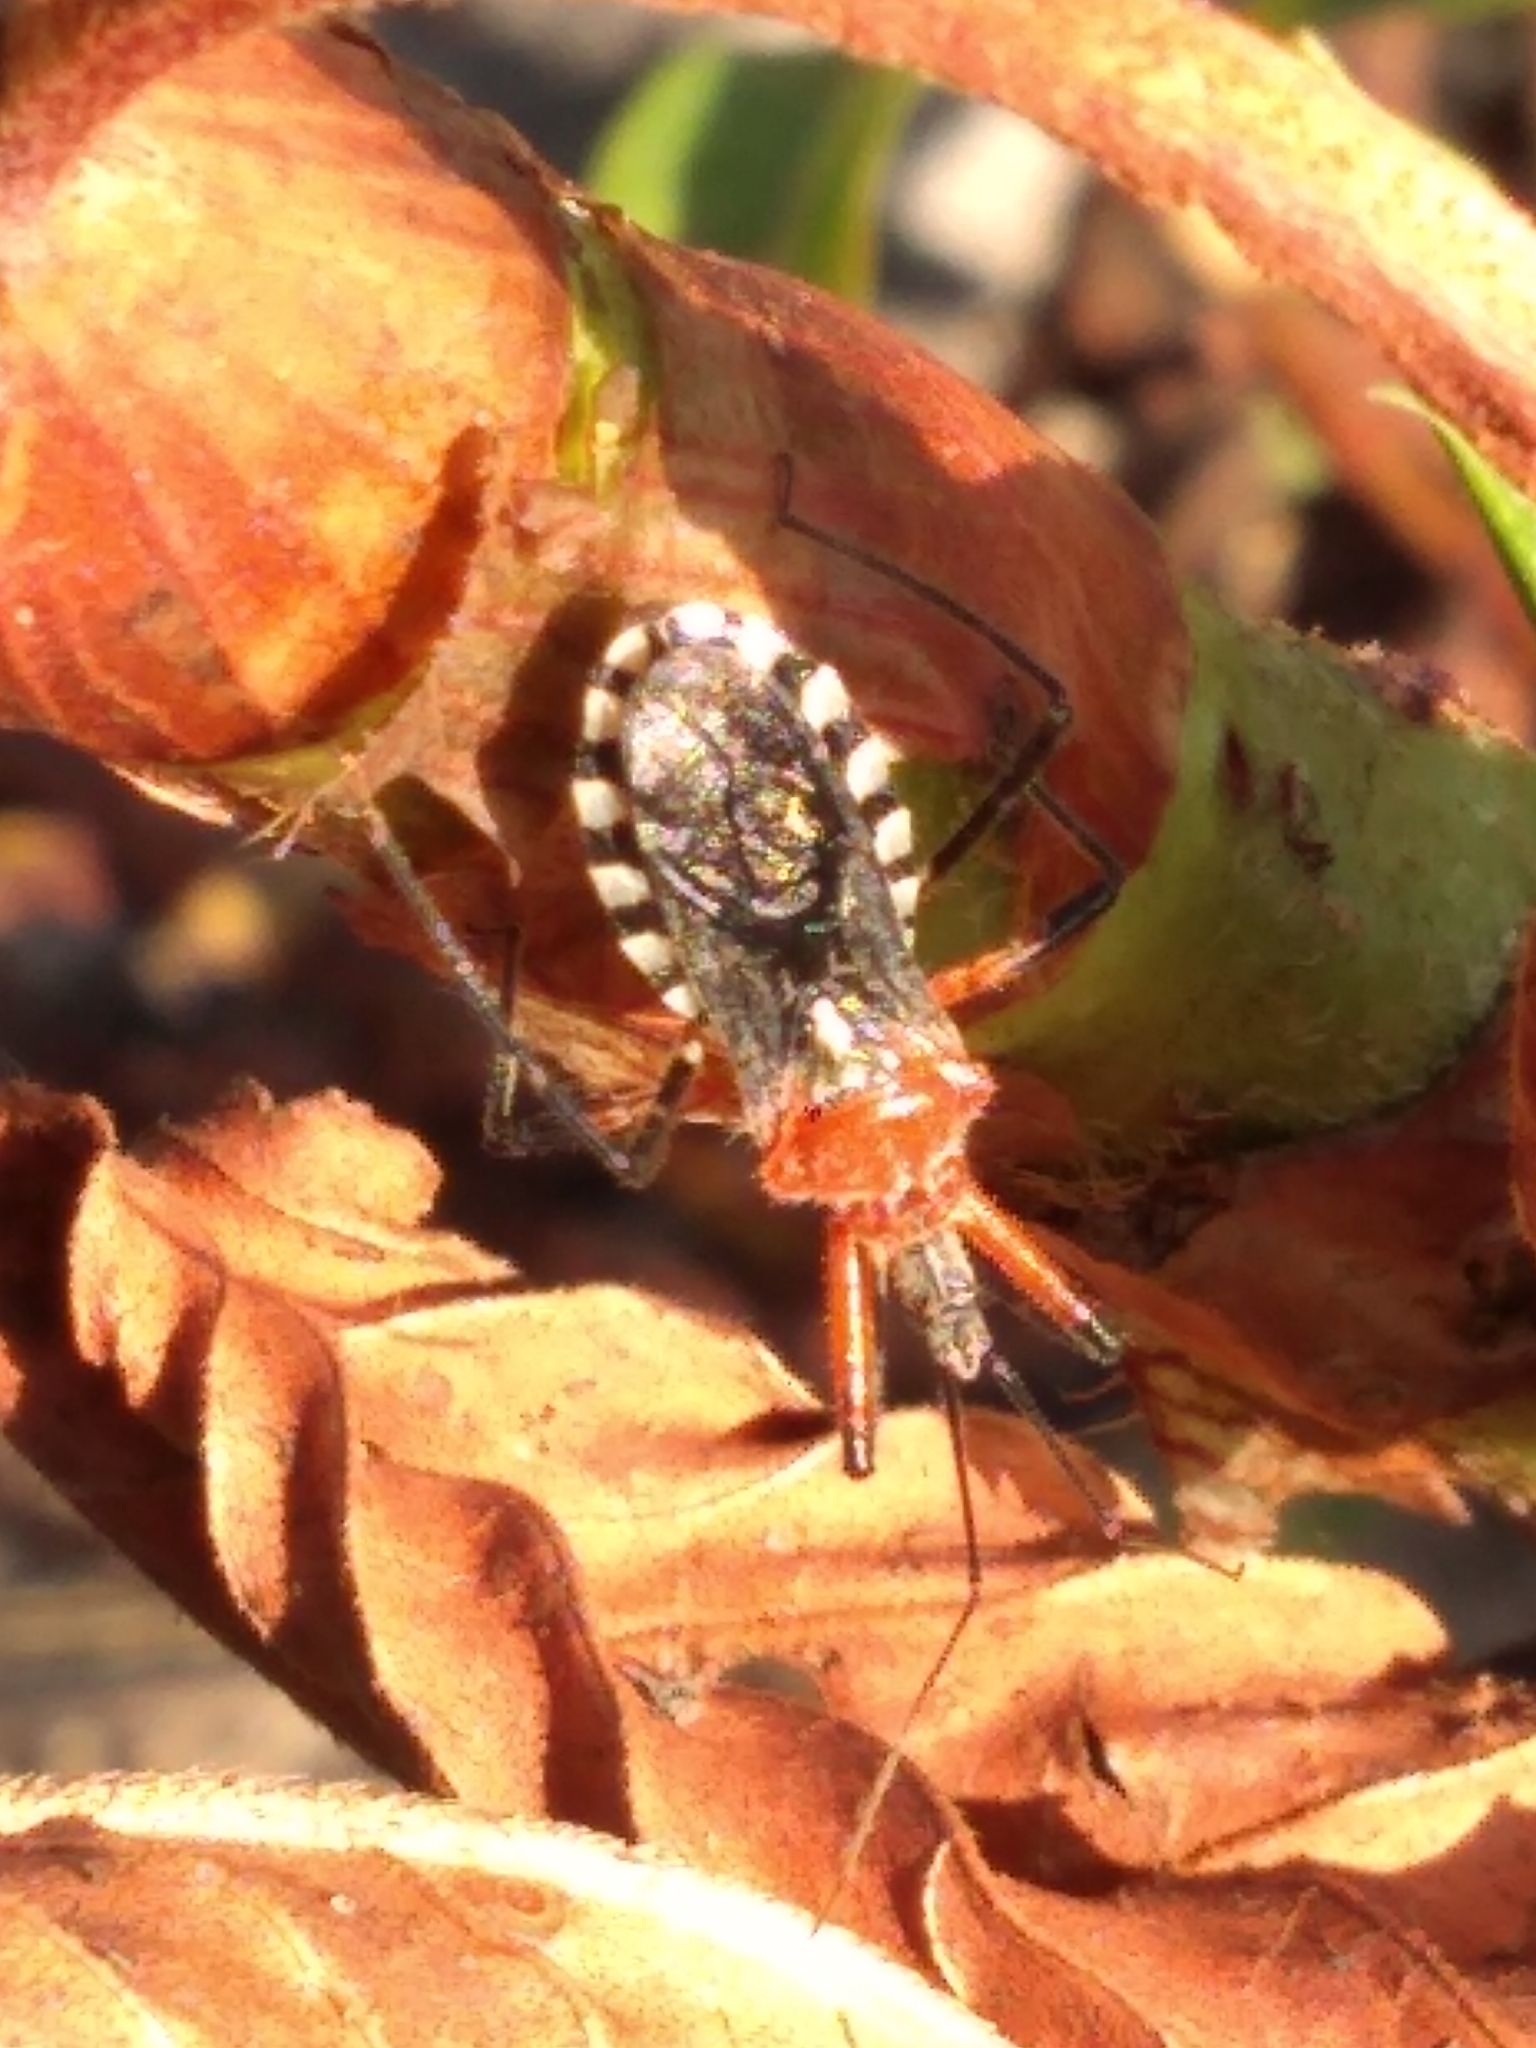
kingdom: Animalia
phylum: Arthropoda
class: Insecta
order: Hemiptera
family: Reduviidae
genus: Cosmoclopius
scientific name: Cosmoclopius poecilus
